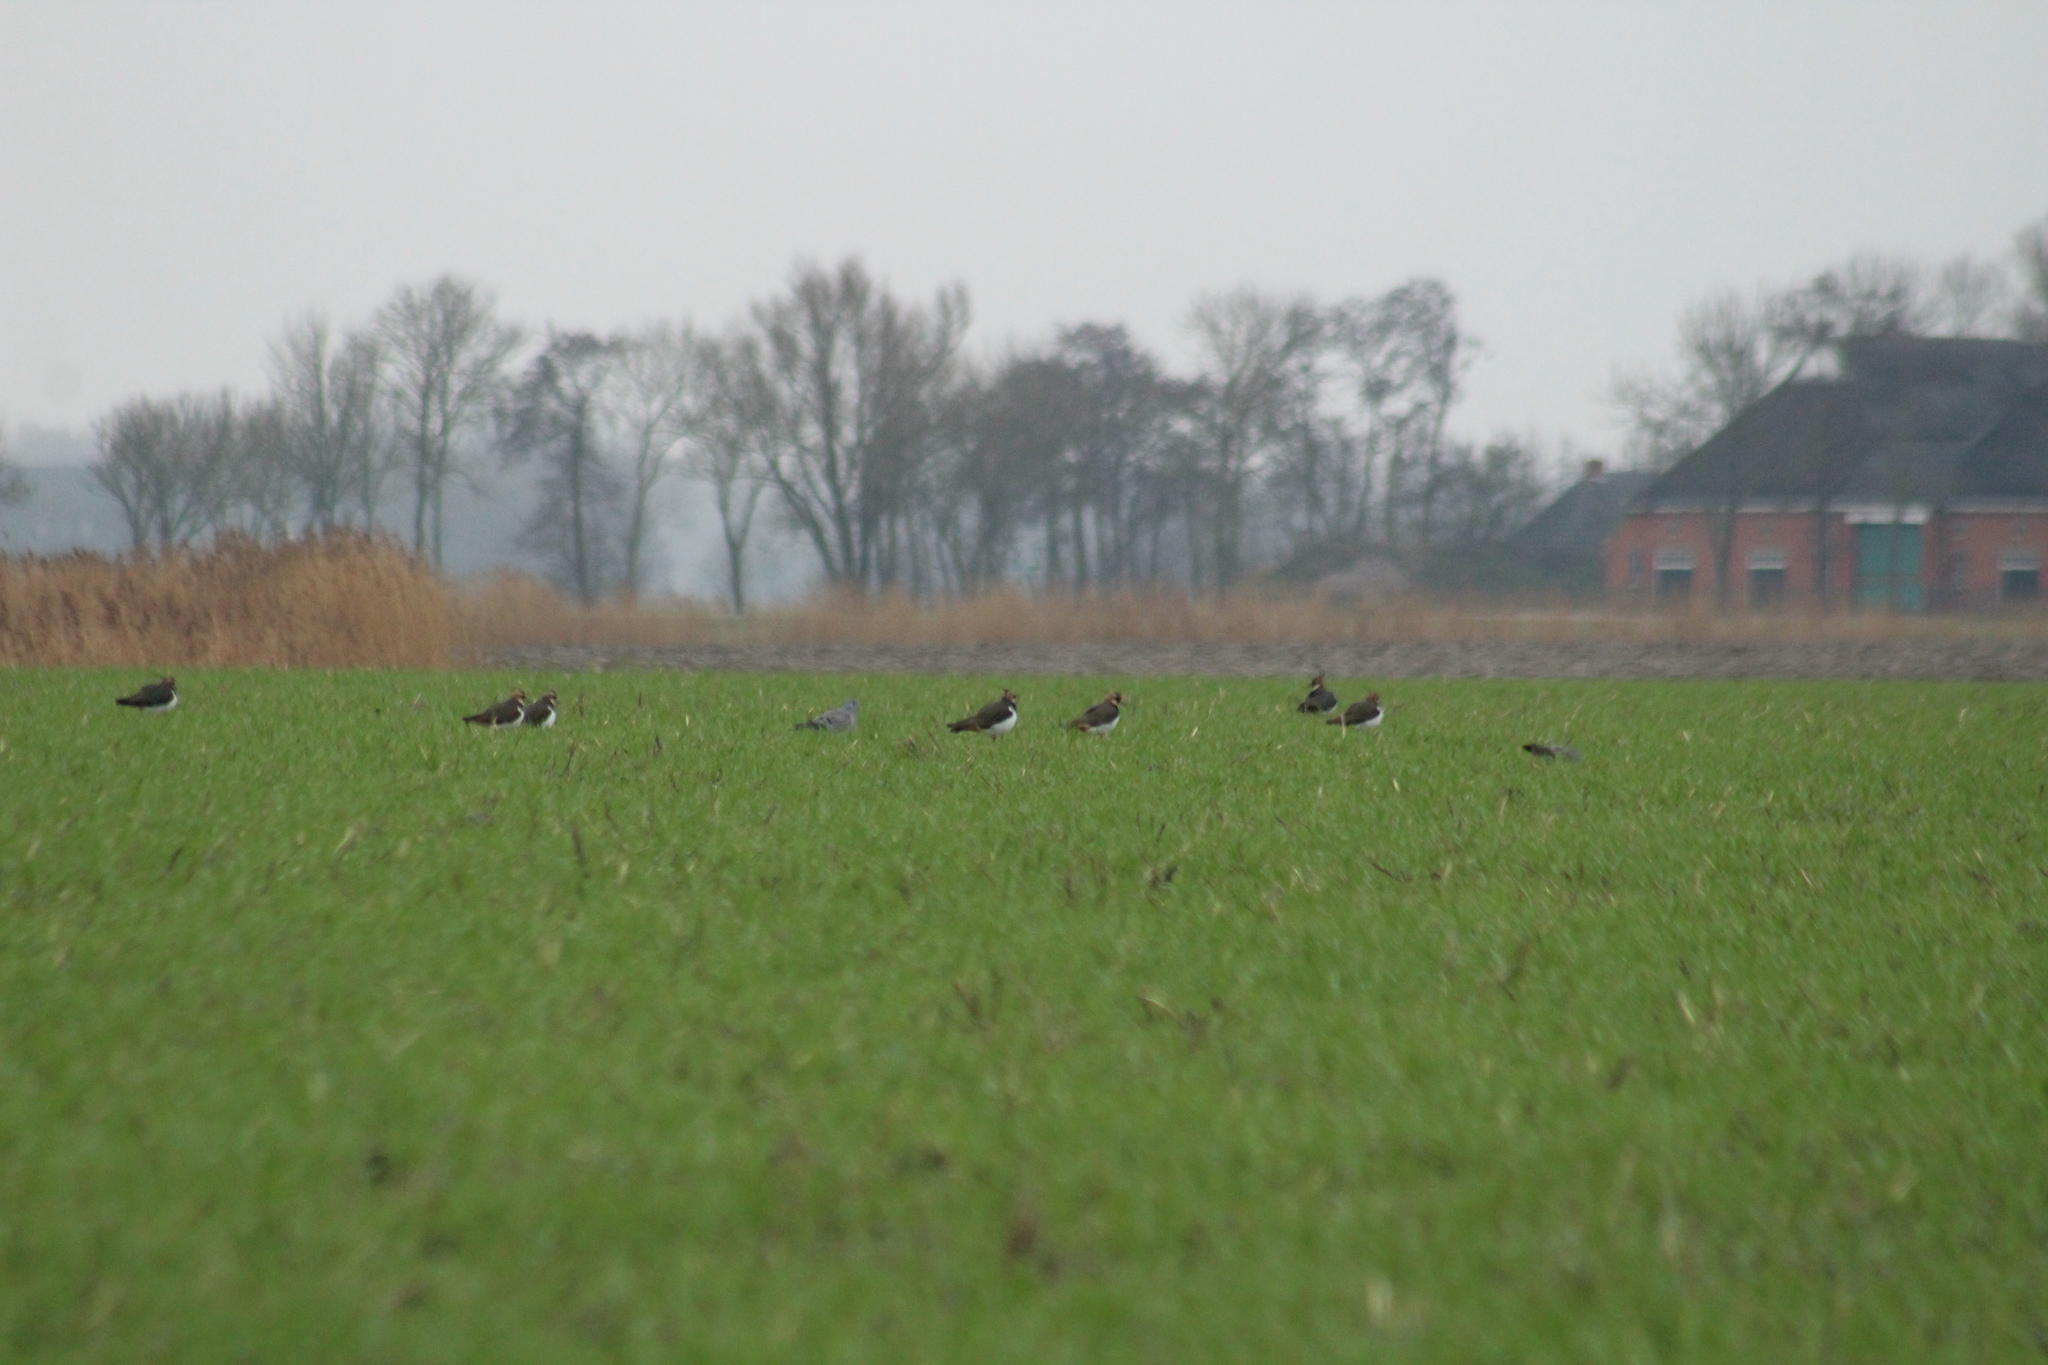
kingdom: Animalia
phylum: Chordata
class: Aves
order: Charadriiformes
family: Charadriidae
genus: Vanellus
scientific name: Vanellus vanellus
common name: Northern lapwing
